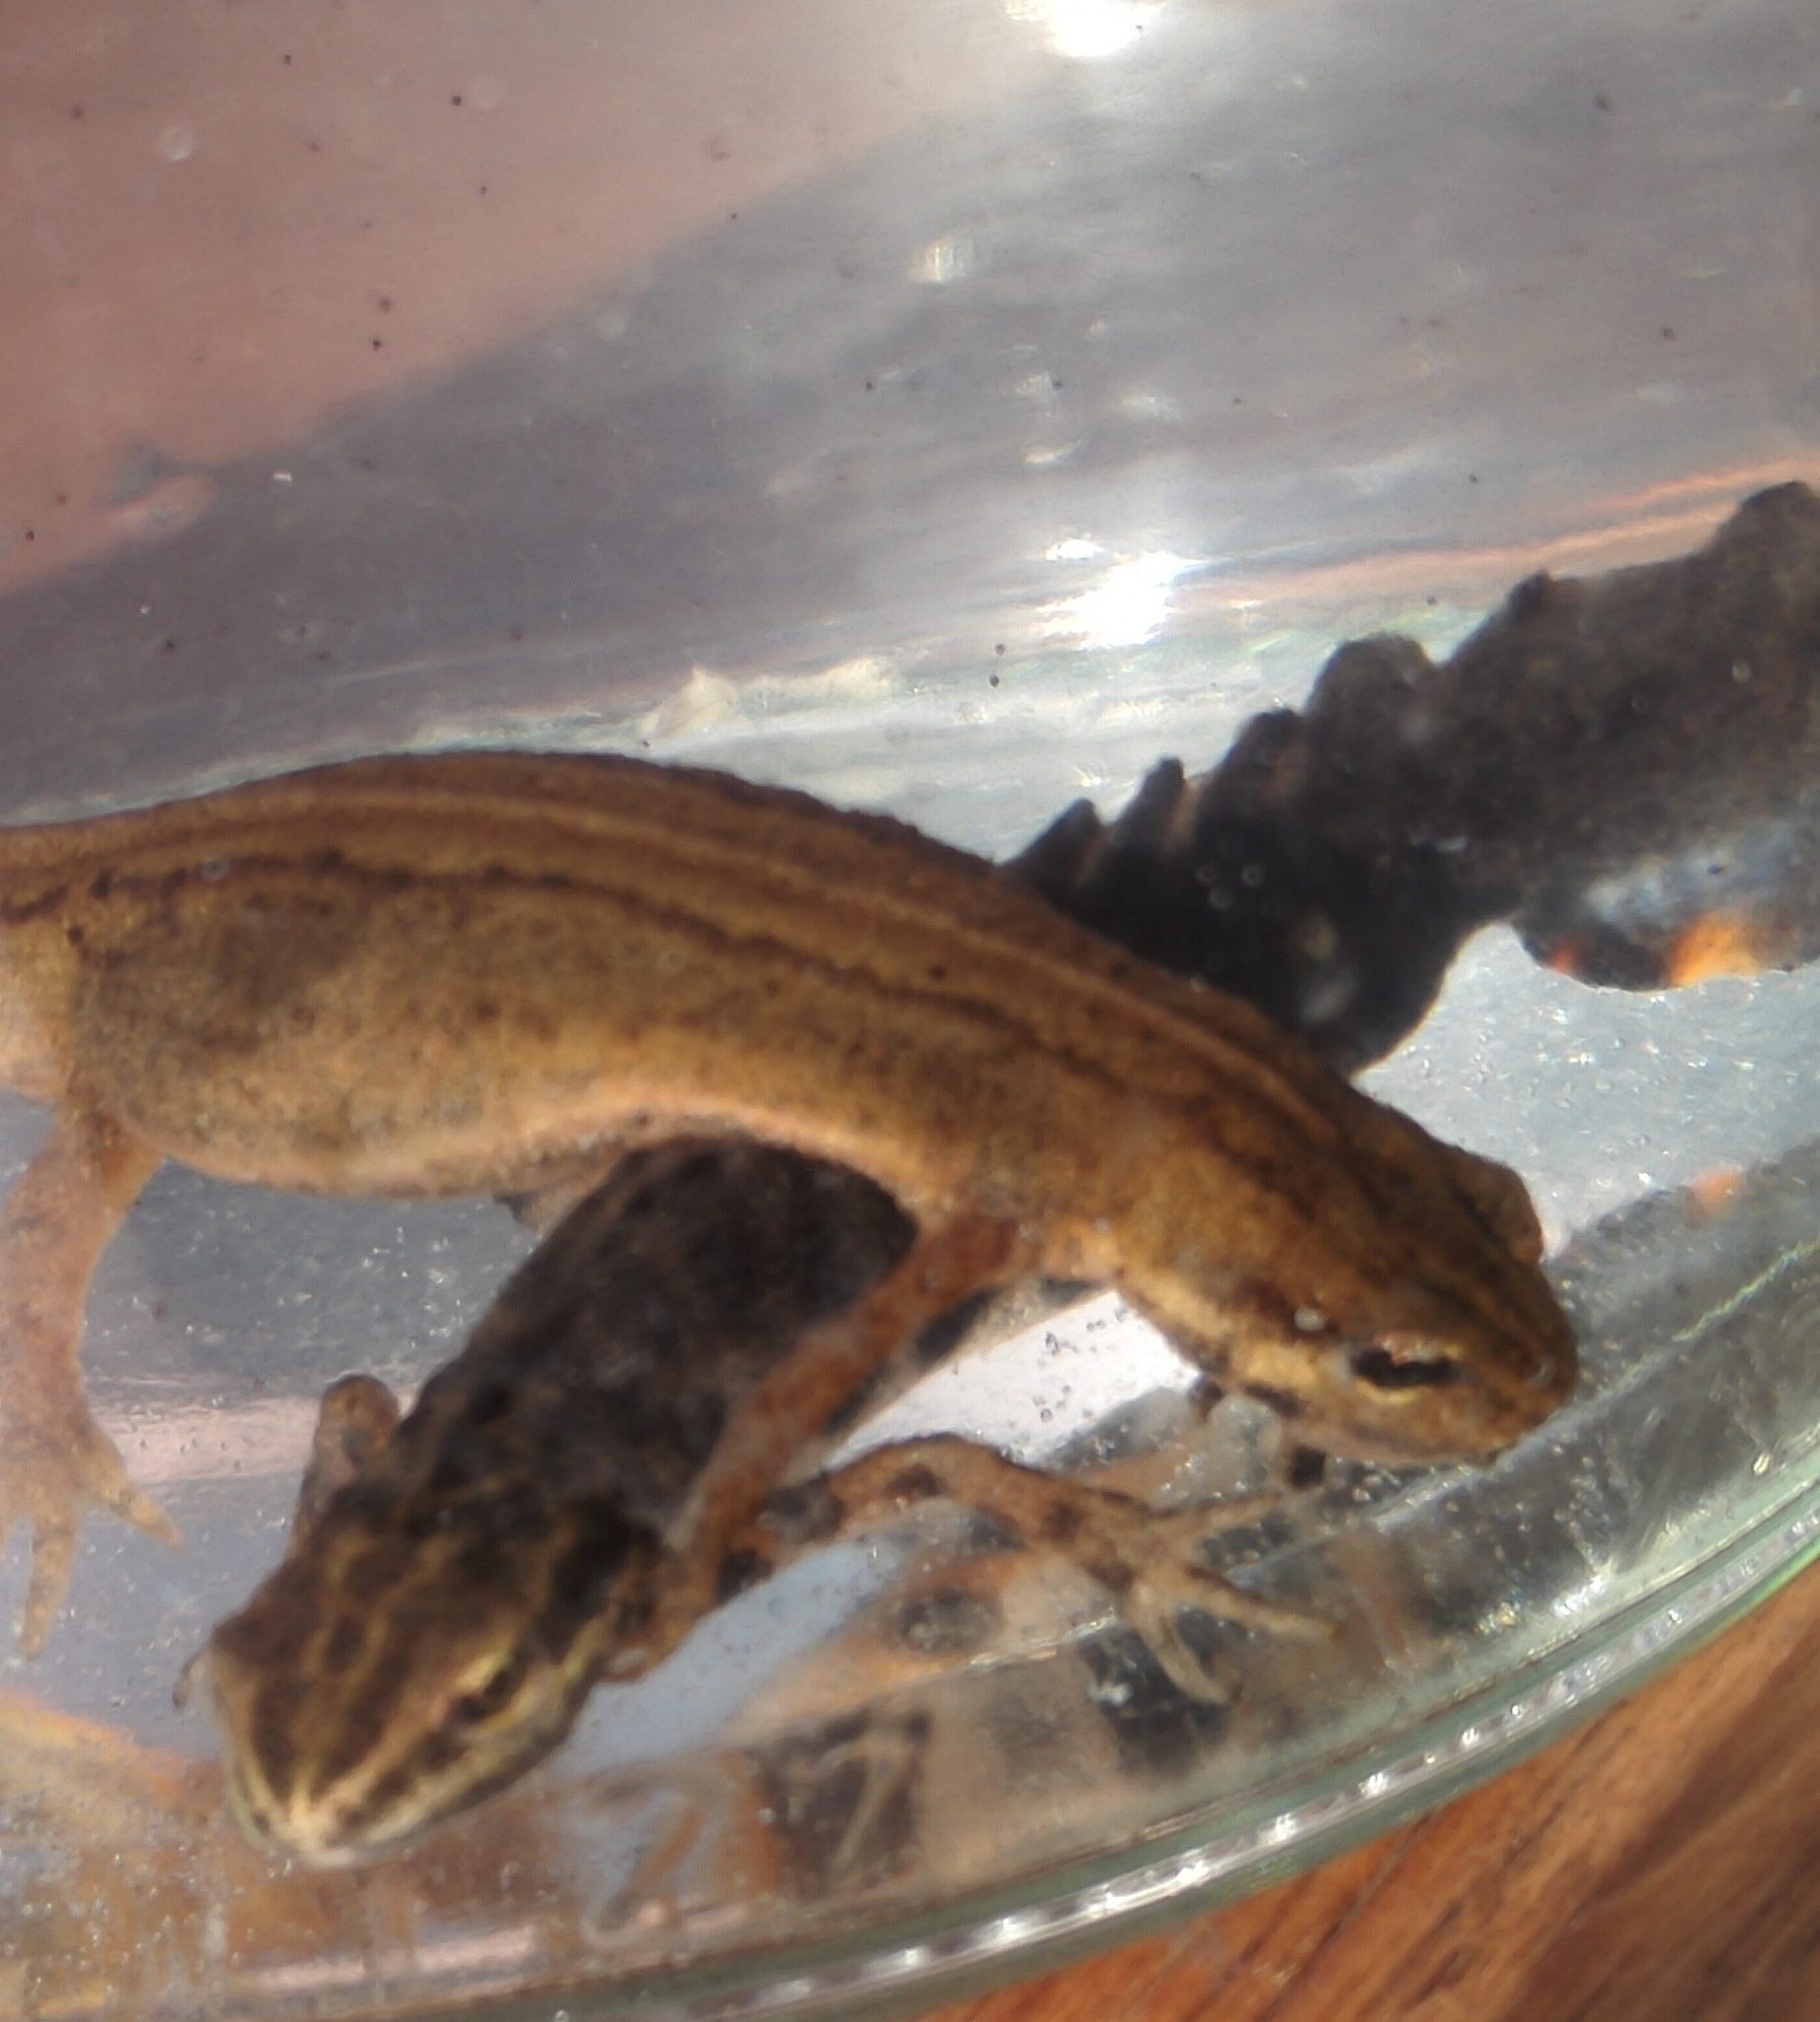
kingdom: Animalia
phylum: Chordata
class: Amphibia
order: Caudata
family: Salamandridae
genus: Lissotriton
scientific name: Lissotriton vulgaris
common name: Smooth newt
